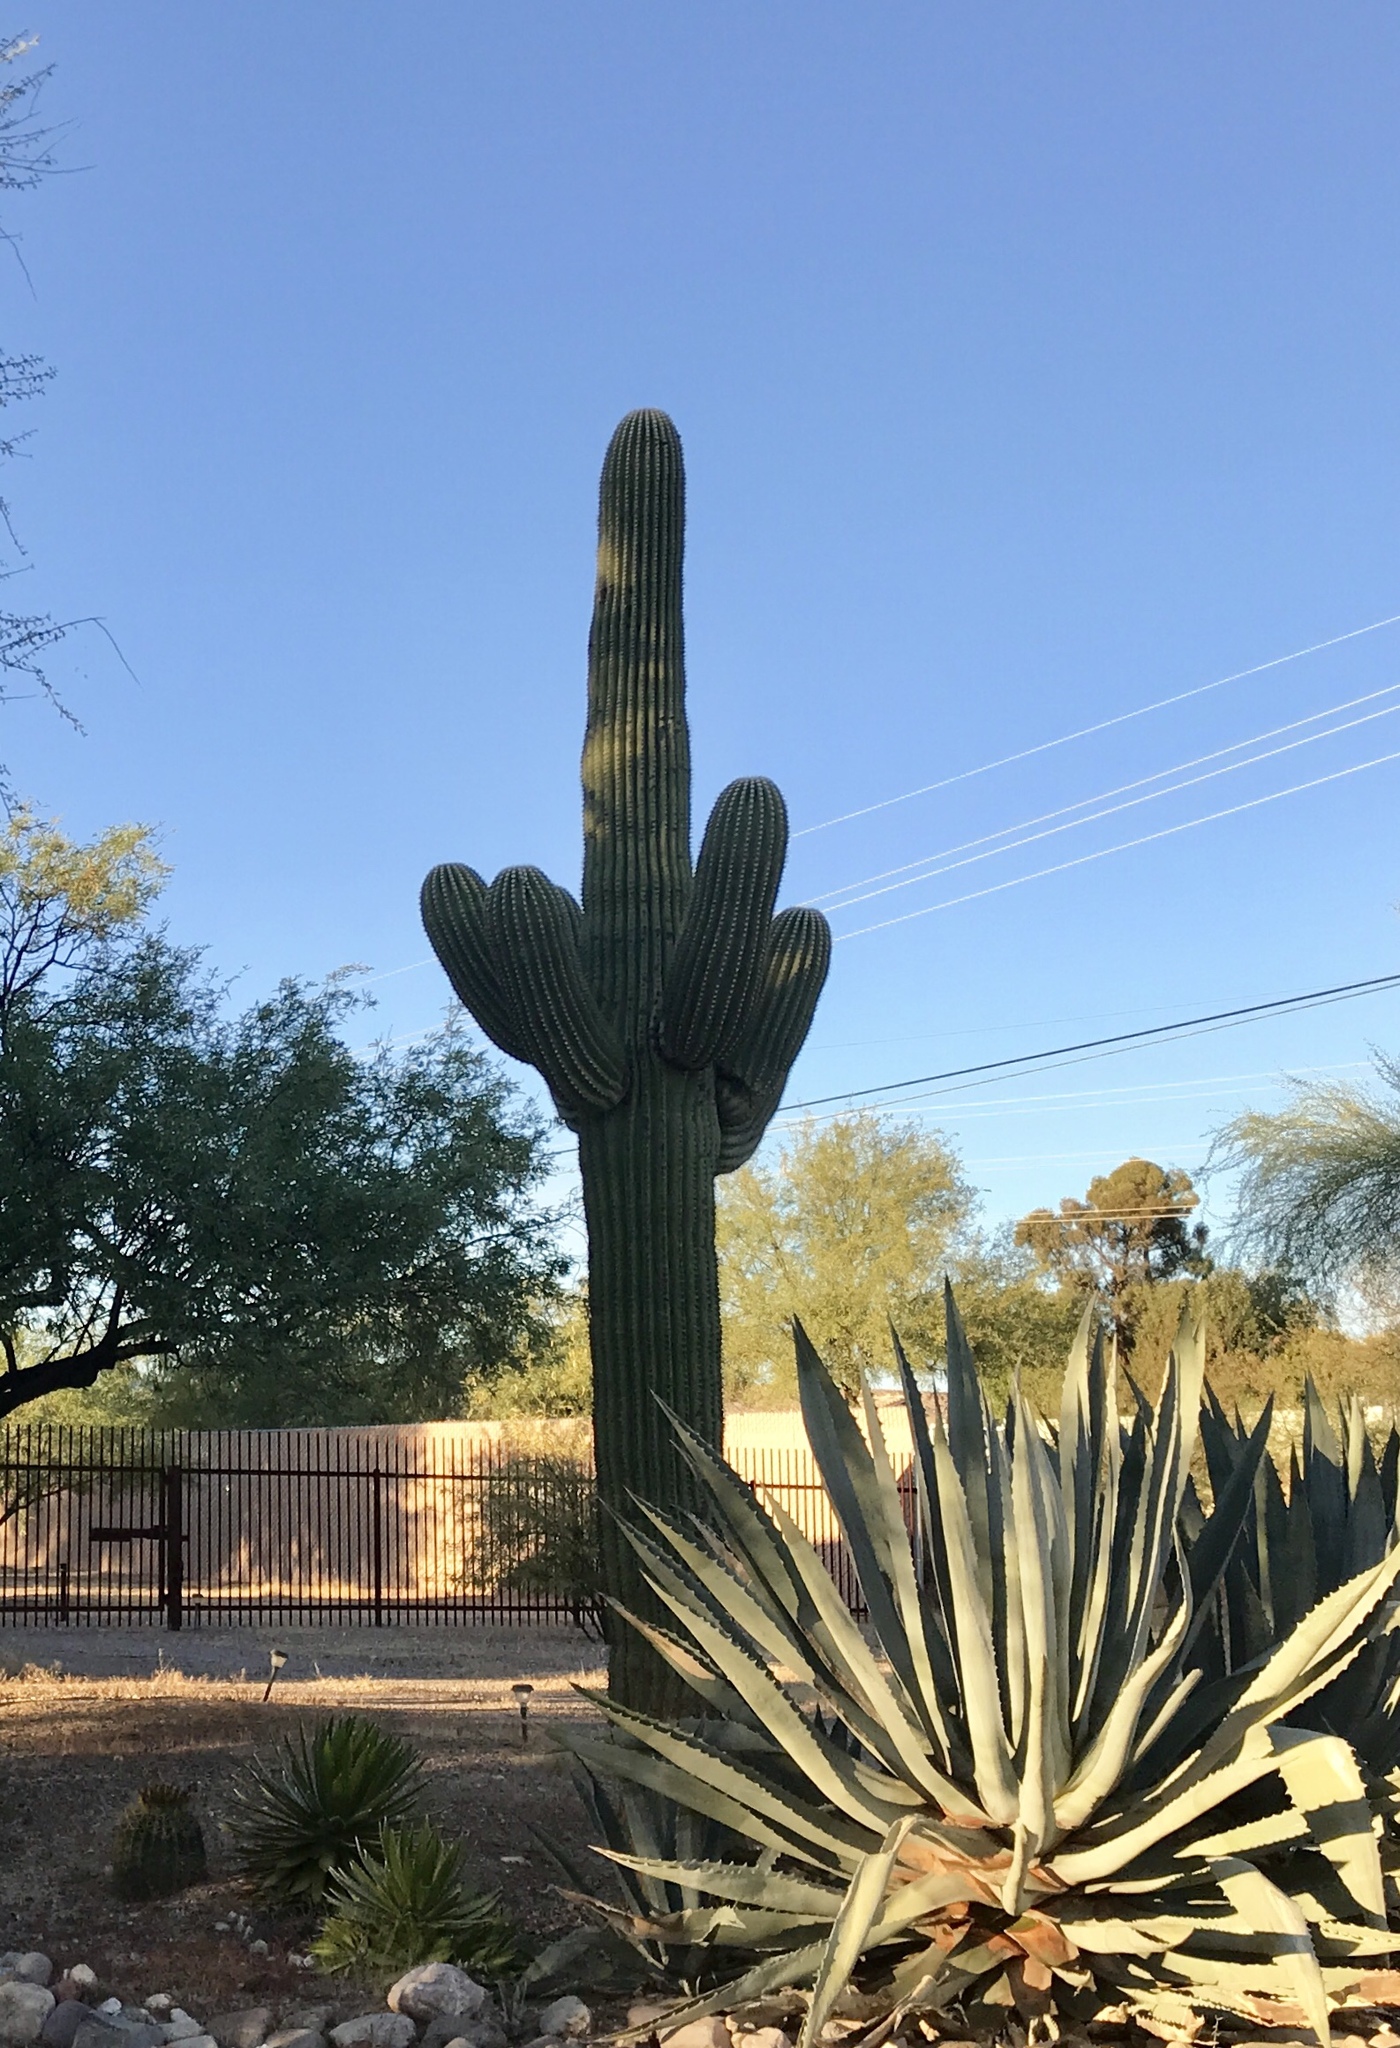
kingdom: Plantae
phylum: Tracheophyta
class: Magnoliopsida
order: Caryophyllales
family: Cactaceae
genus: Carnegiea
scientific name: Carnegiea gigantea
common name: Saguaro
